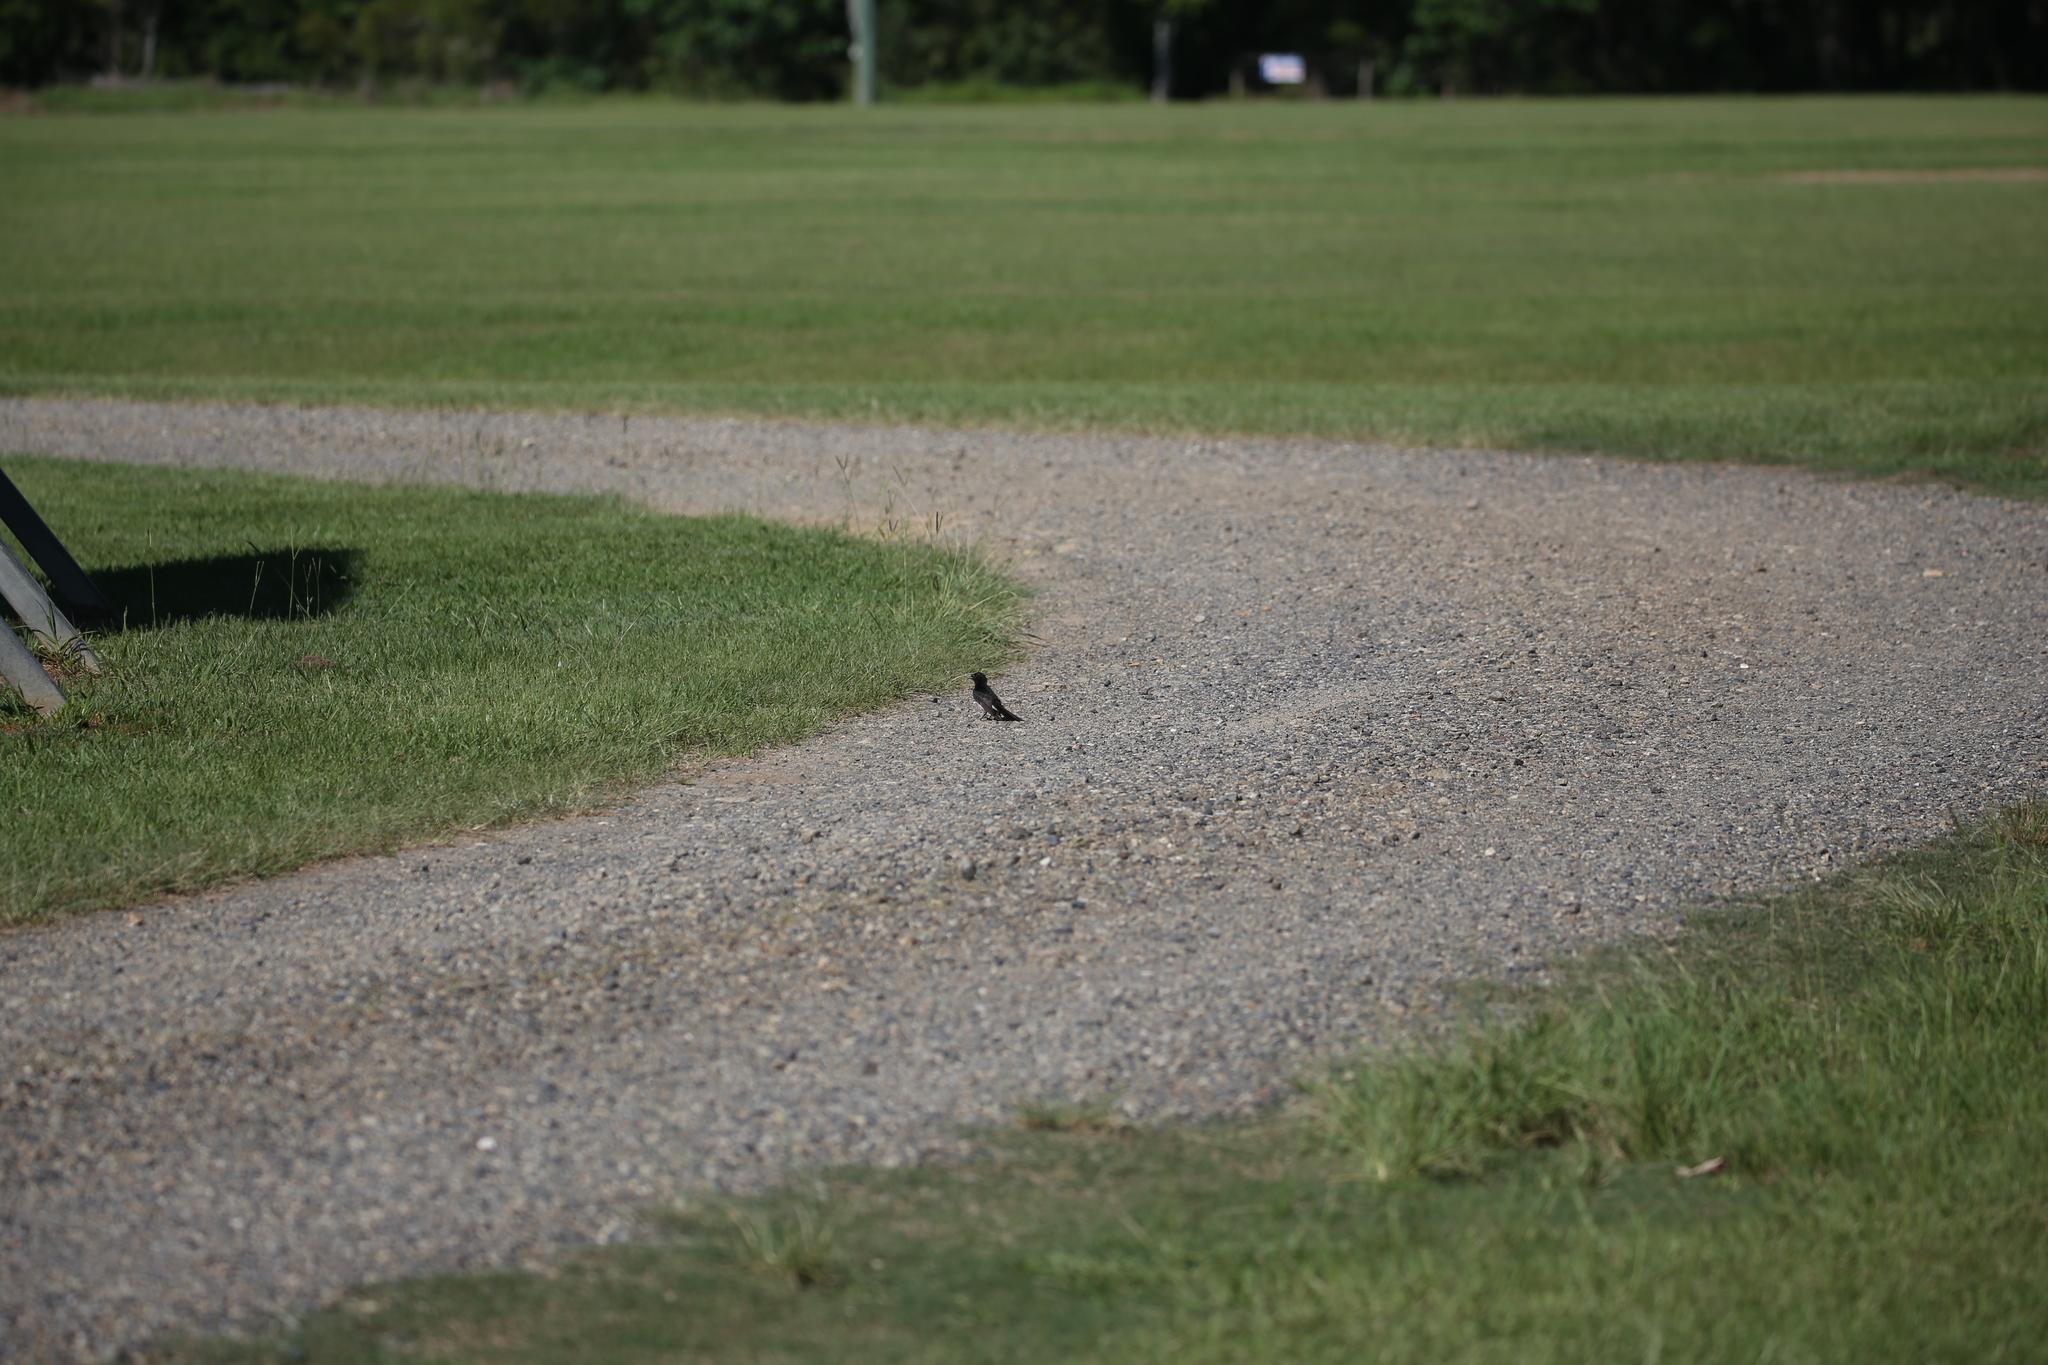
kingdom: Animalia
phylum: Chordata
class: Aves
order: Passeriformes
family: Rhipiduridae
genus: Rhipidura
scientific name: Rhipidura leucophrys
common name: Willie wagtail
